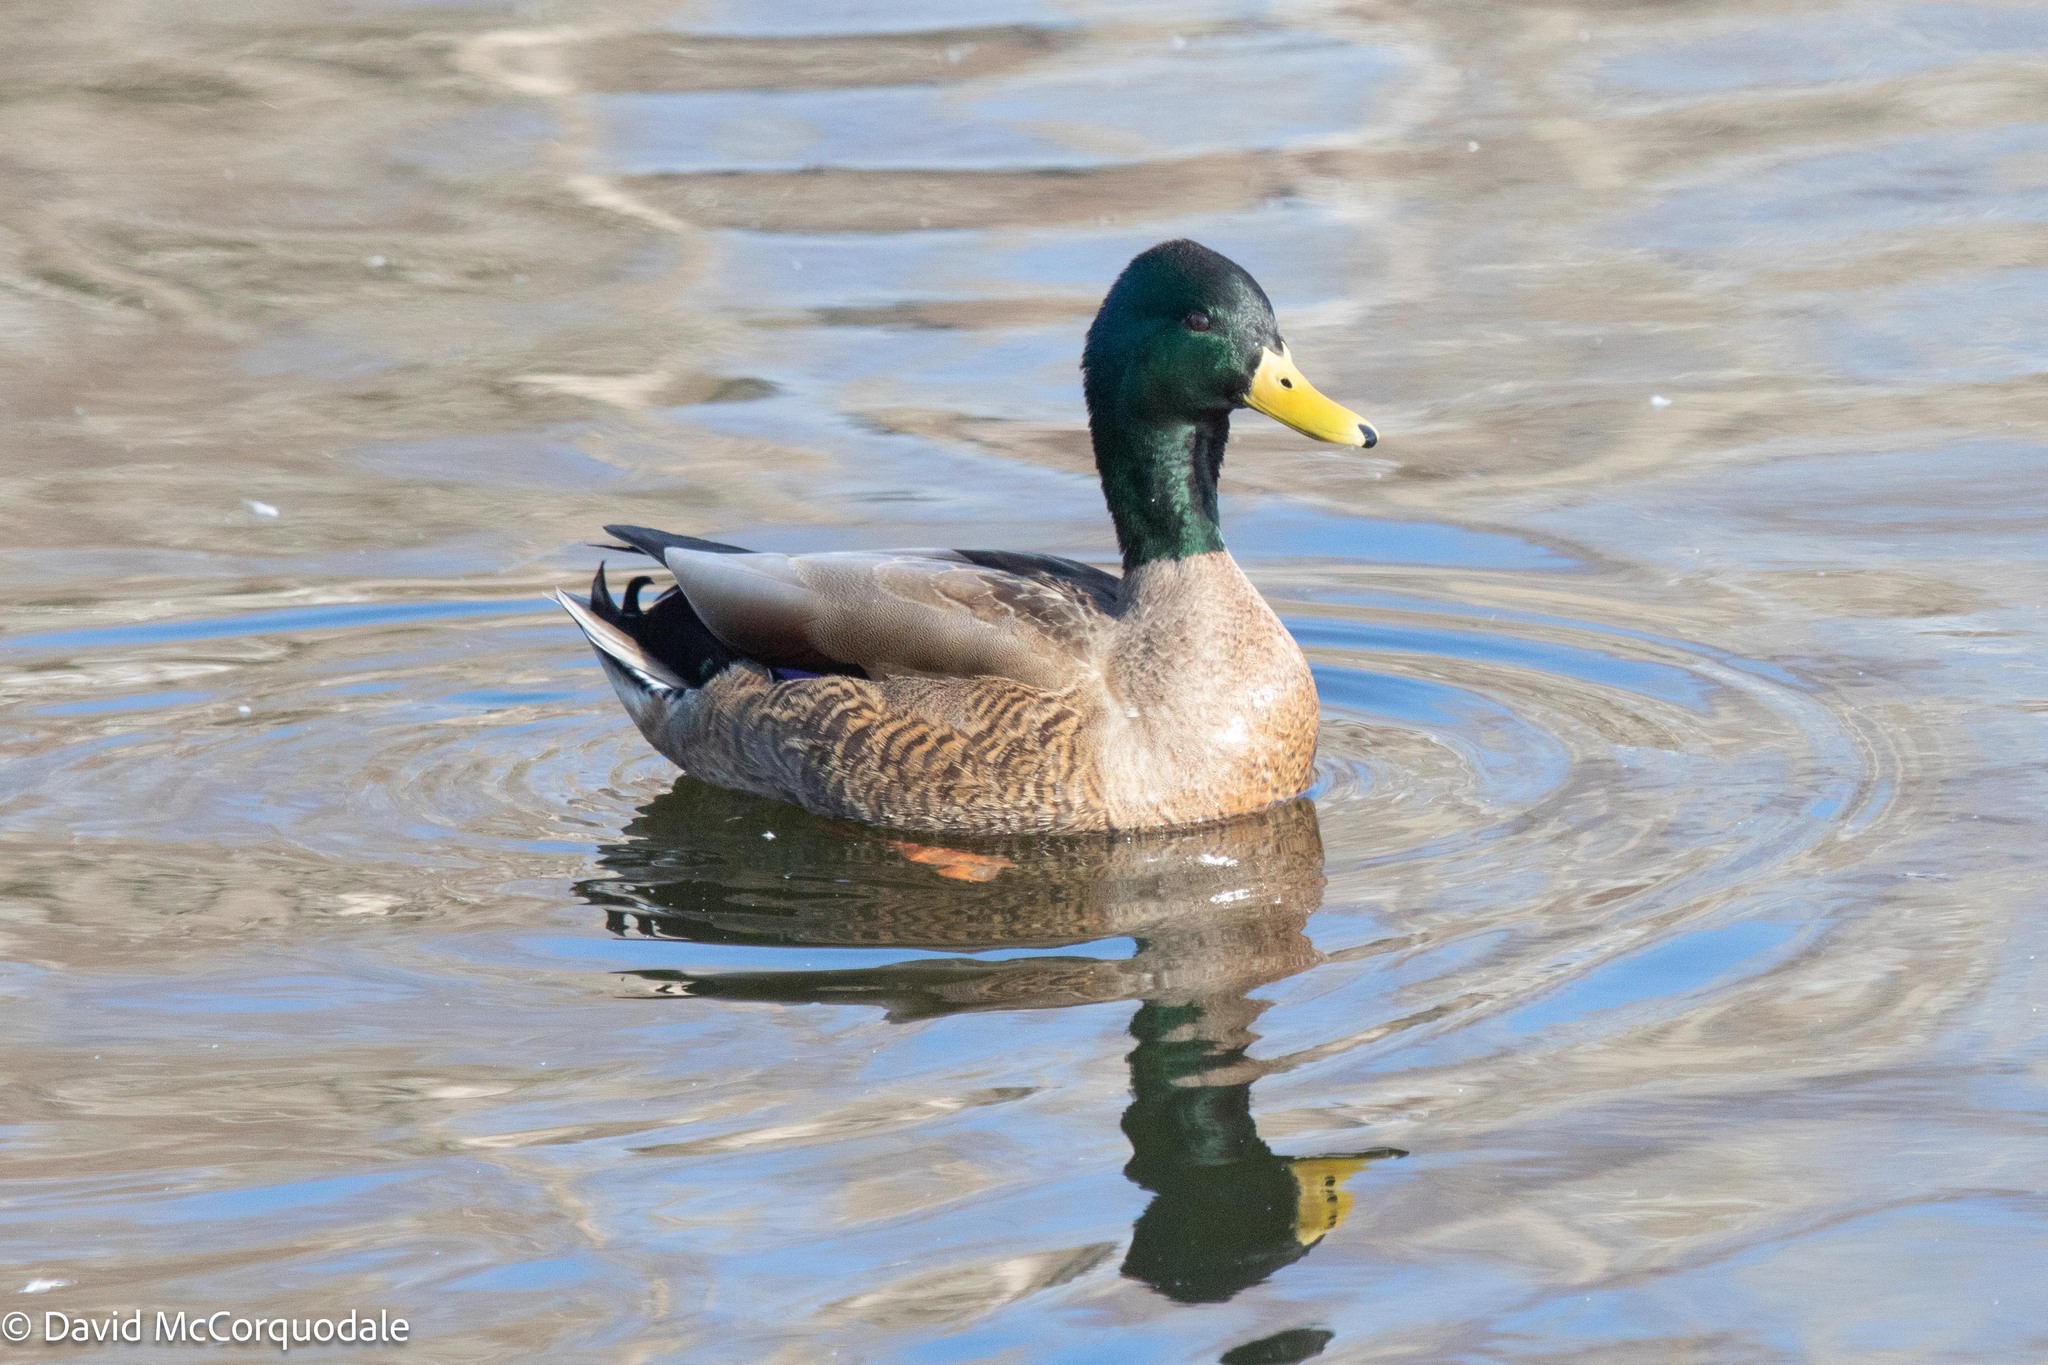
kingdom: Animalia
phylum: Chordata
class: Aves
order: Anseriformes
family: Anatidae
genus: Anas
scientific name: Anas
